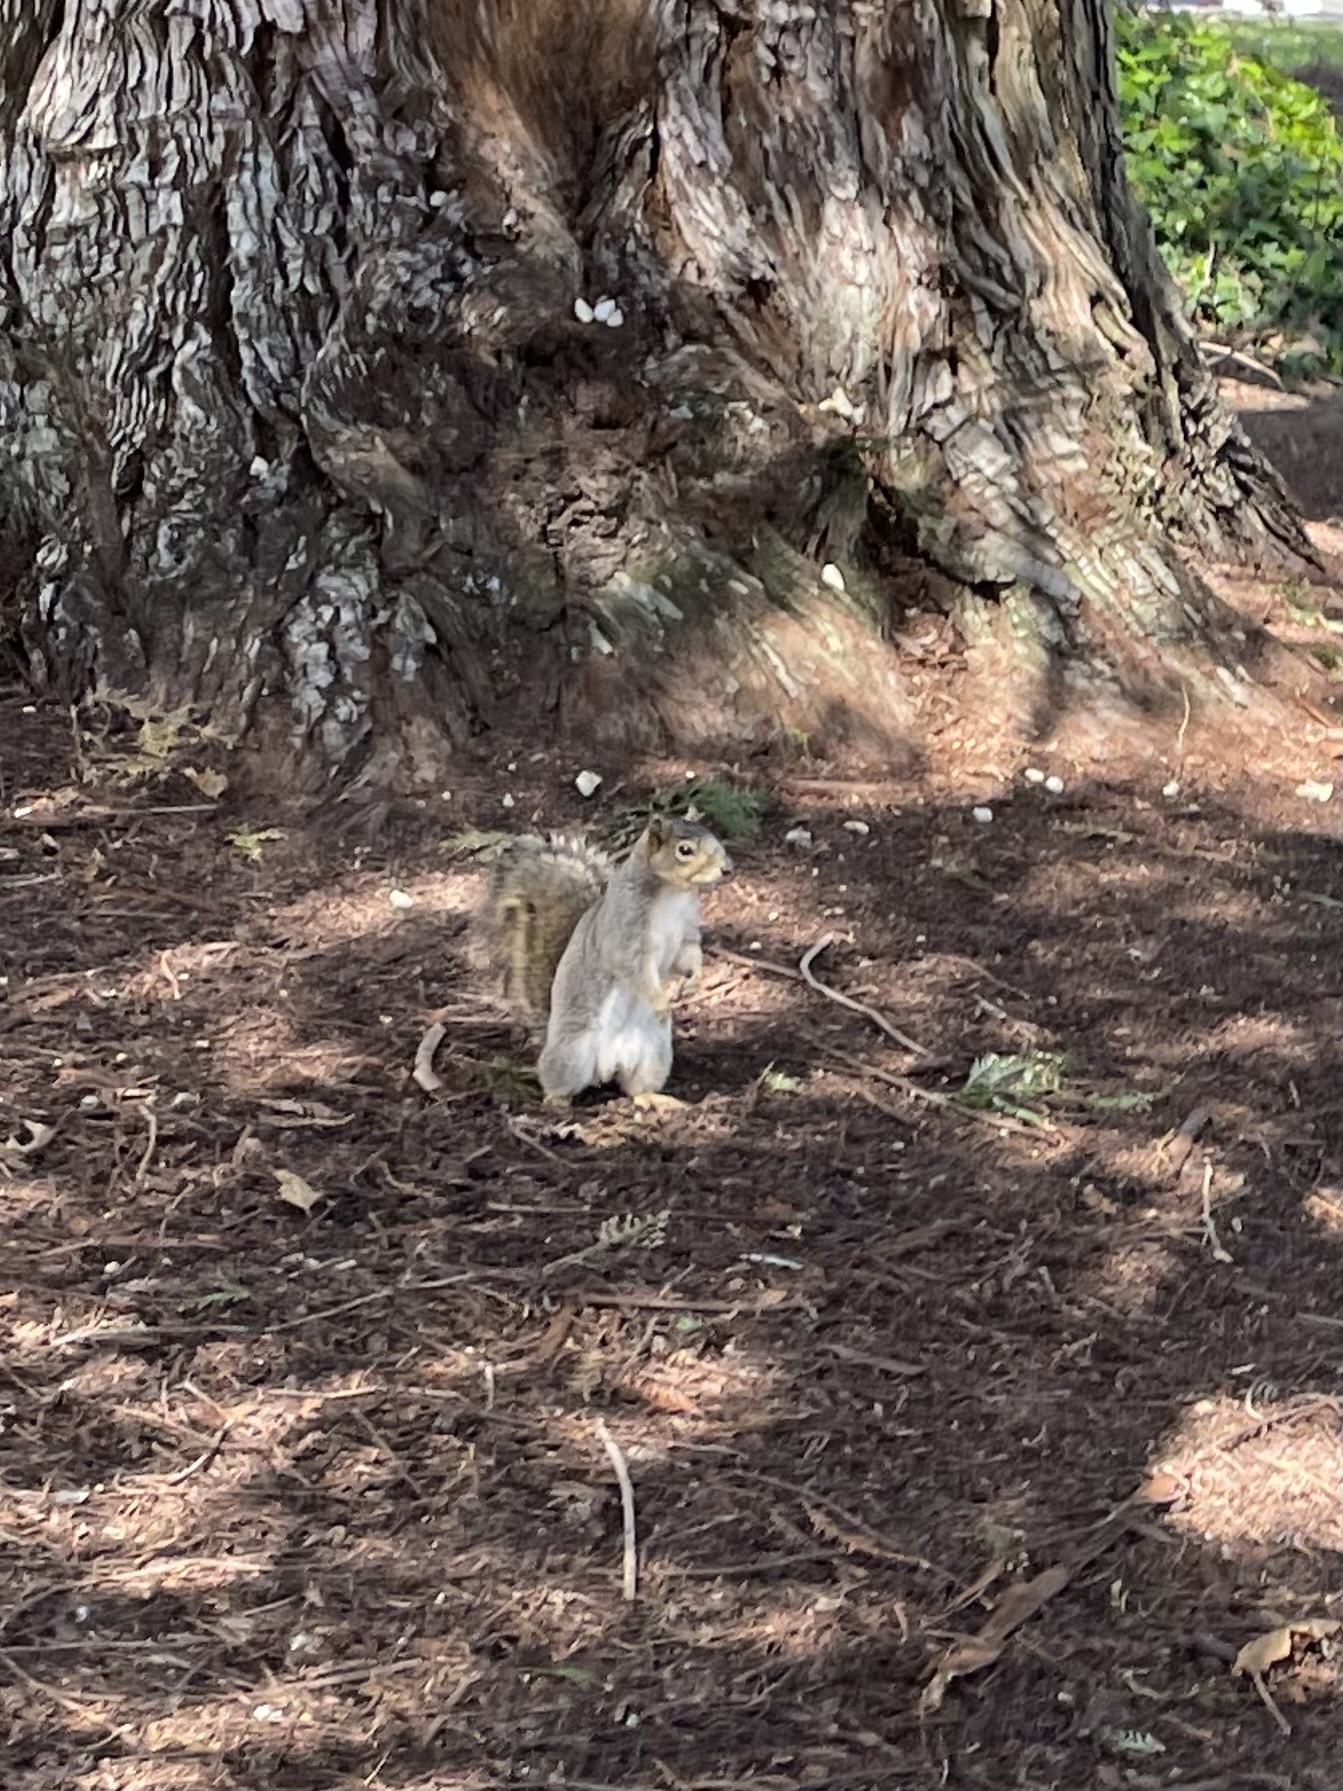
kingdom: Animalia
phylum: Chordata
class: Mammalia
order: Rodentia
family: Sciuridae
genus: Sciurus
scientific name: Sciurus niger
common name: Fox squirrel
